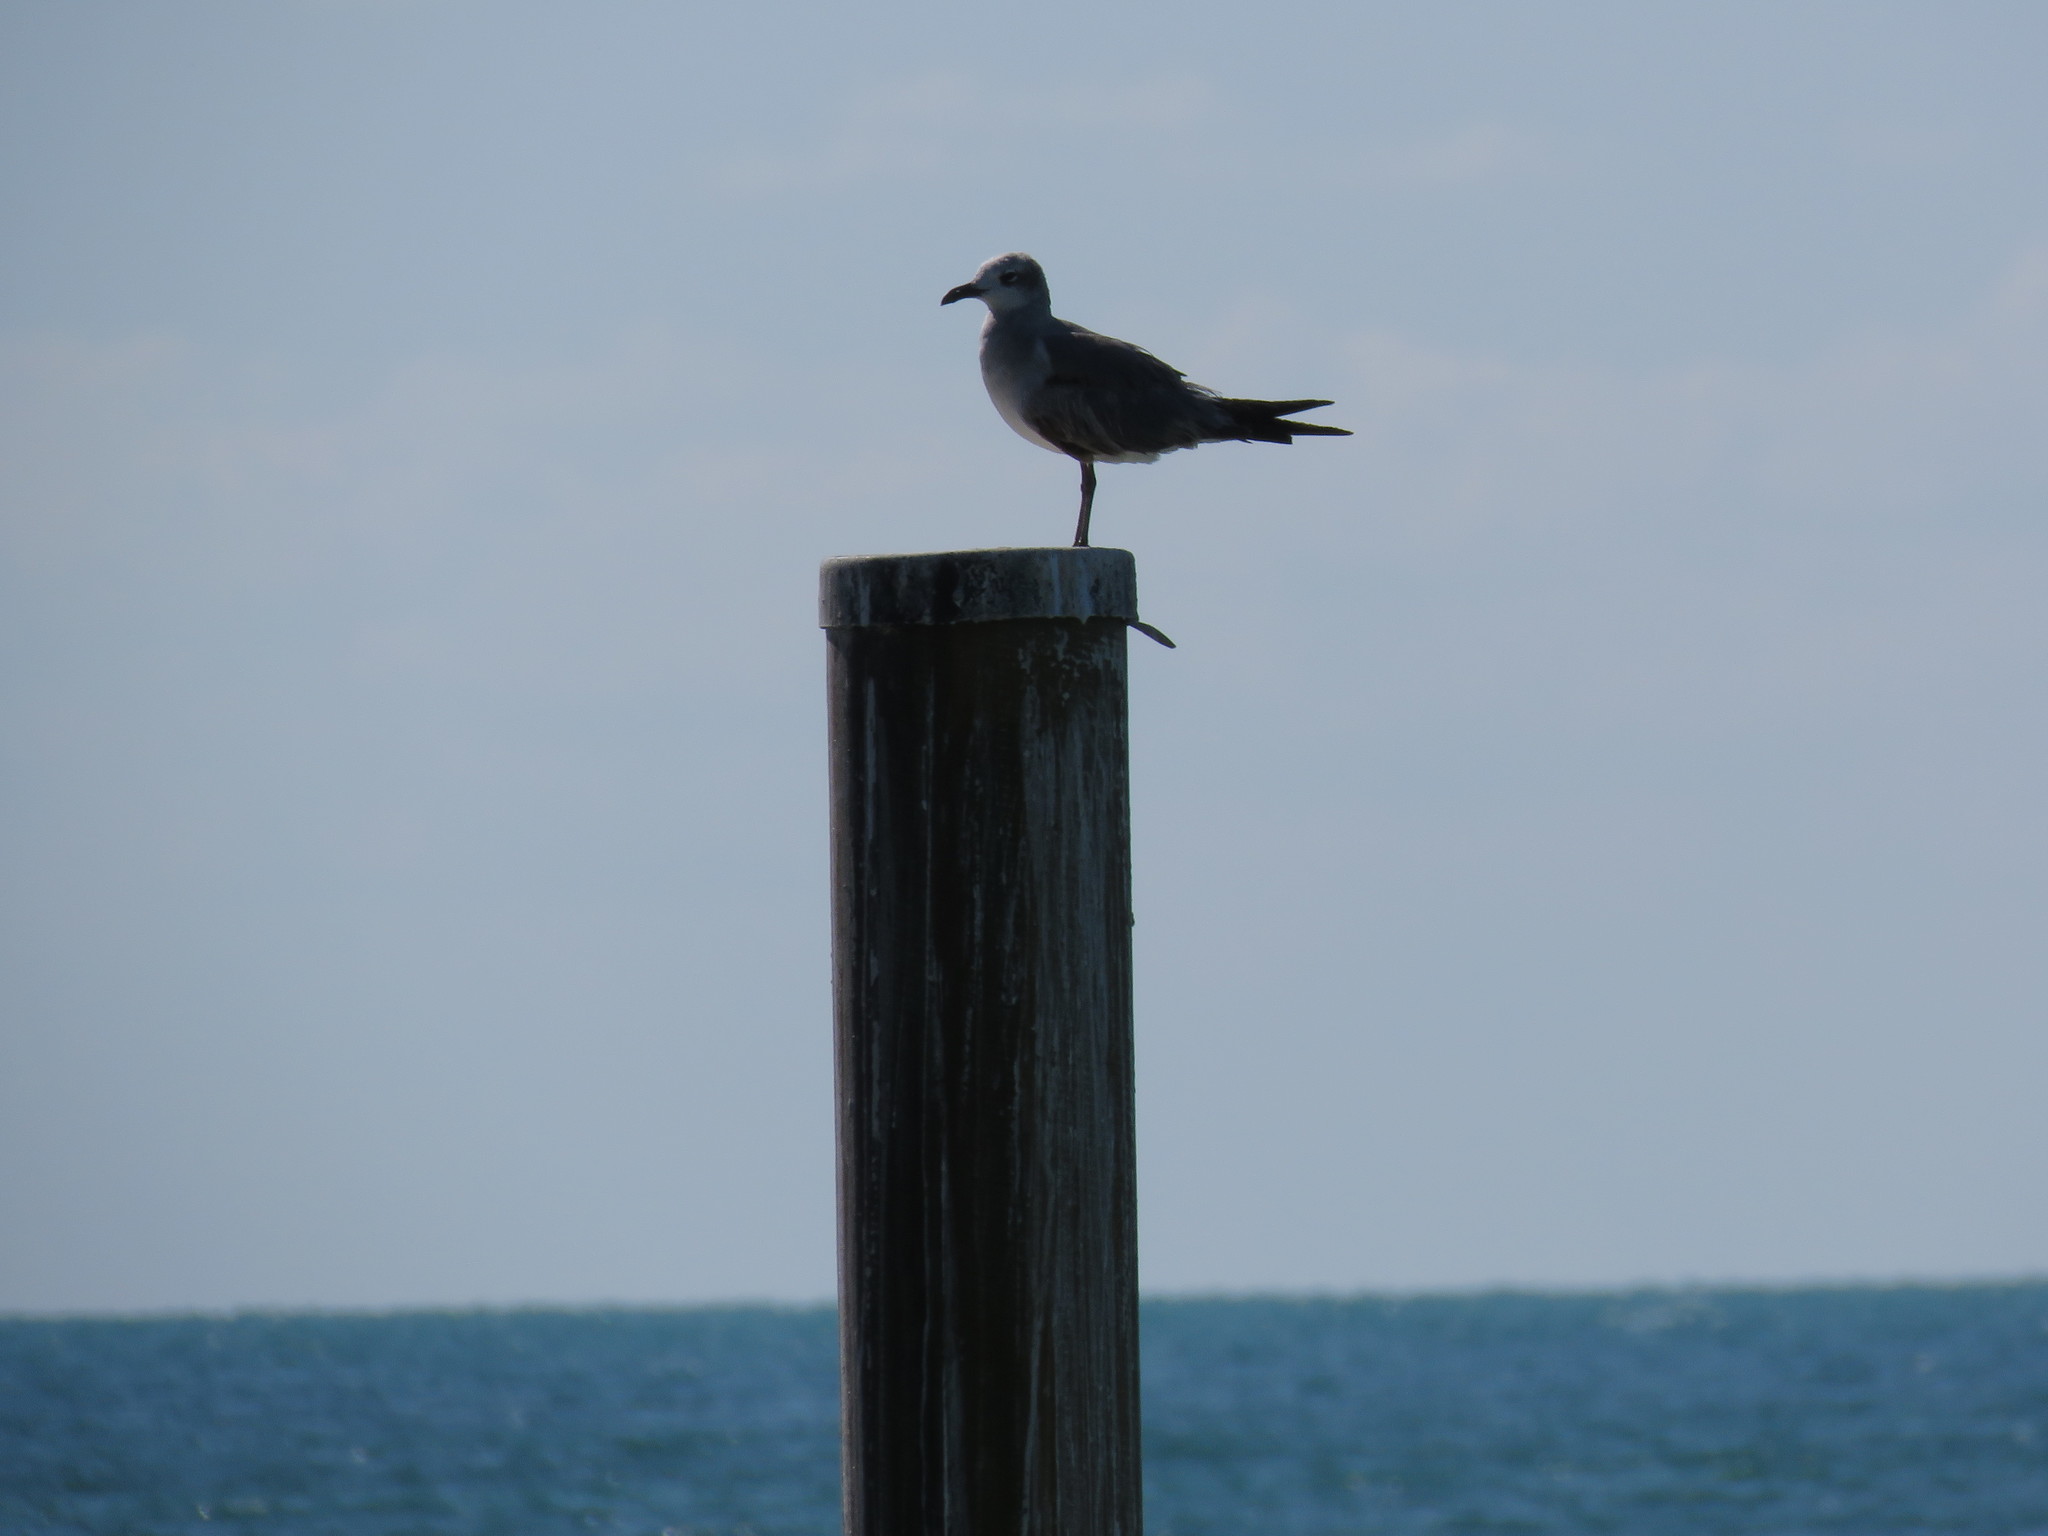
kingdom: Animalia
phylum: Chordata
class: Aves
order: Charadriiformes
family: Laridae
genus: Leucophaeus
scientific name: Leucophaeus atricilla
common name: Laughing gull
